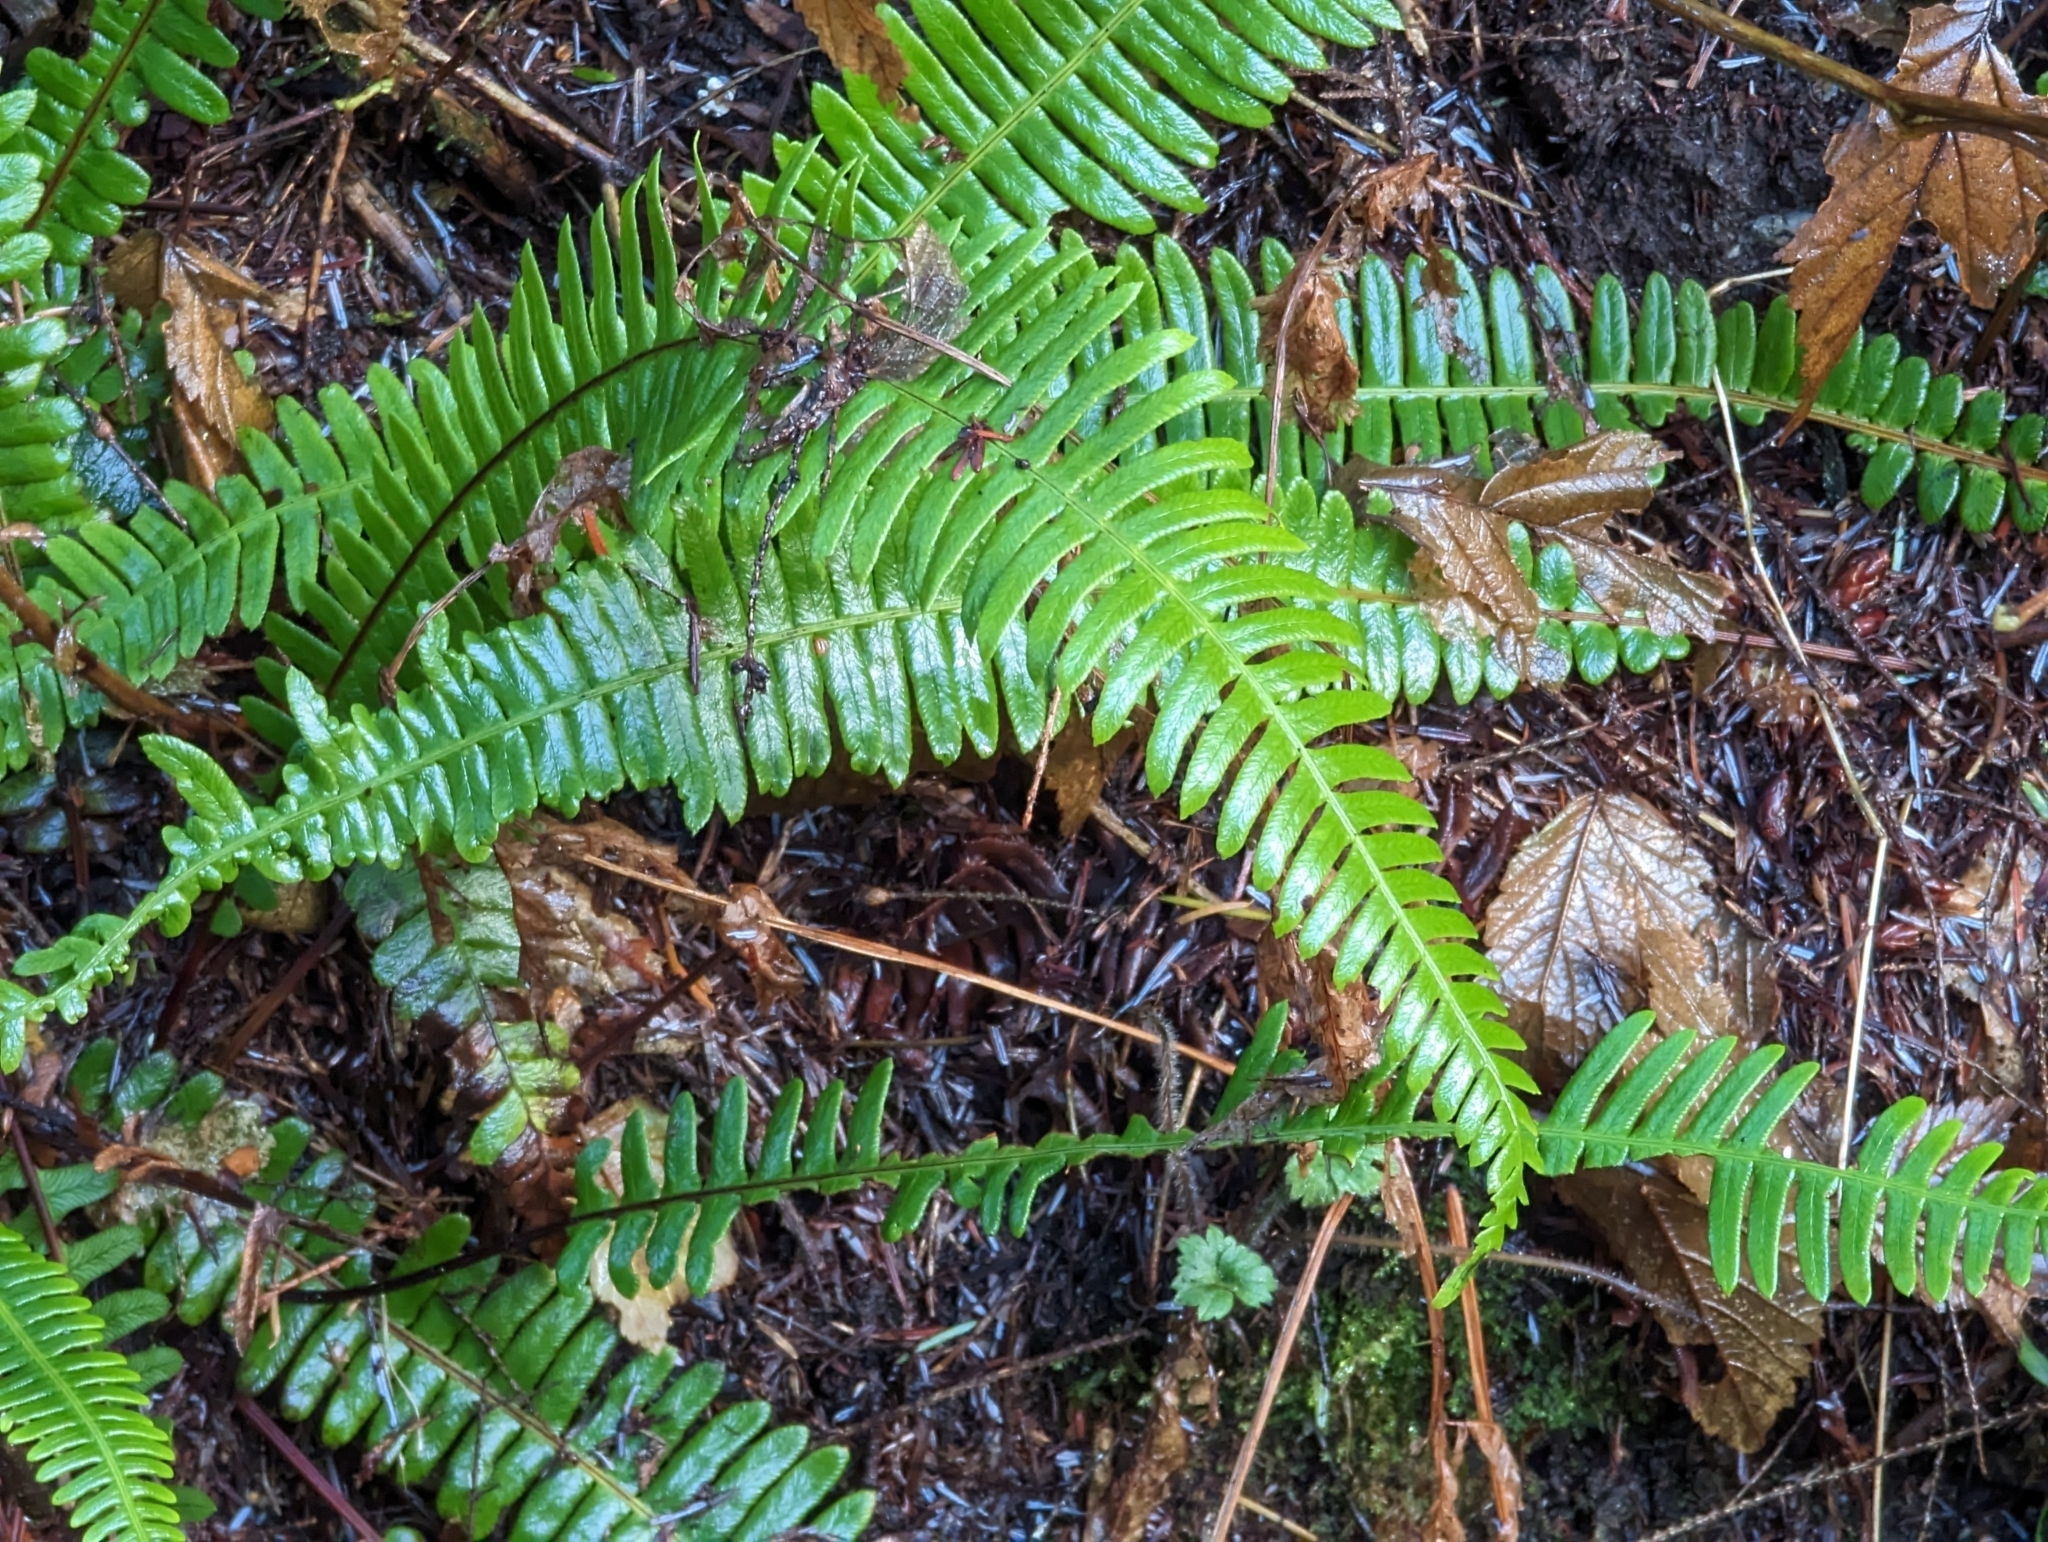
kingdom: Plantae
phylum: Tracheophyta
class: Polypodiopsida
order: Polypodiales
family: Blechnaceae
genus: Struthiopteris
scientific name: Struthiopteris spicant
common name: Deer fern
